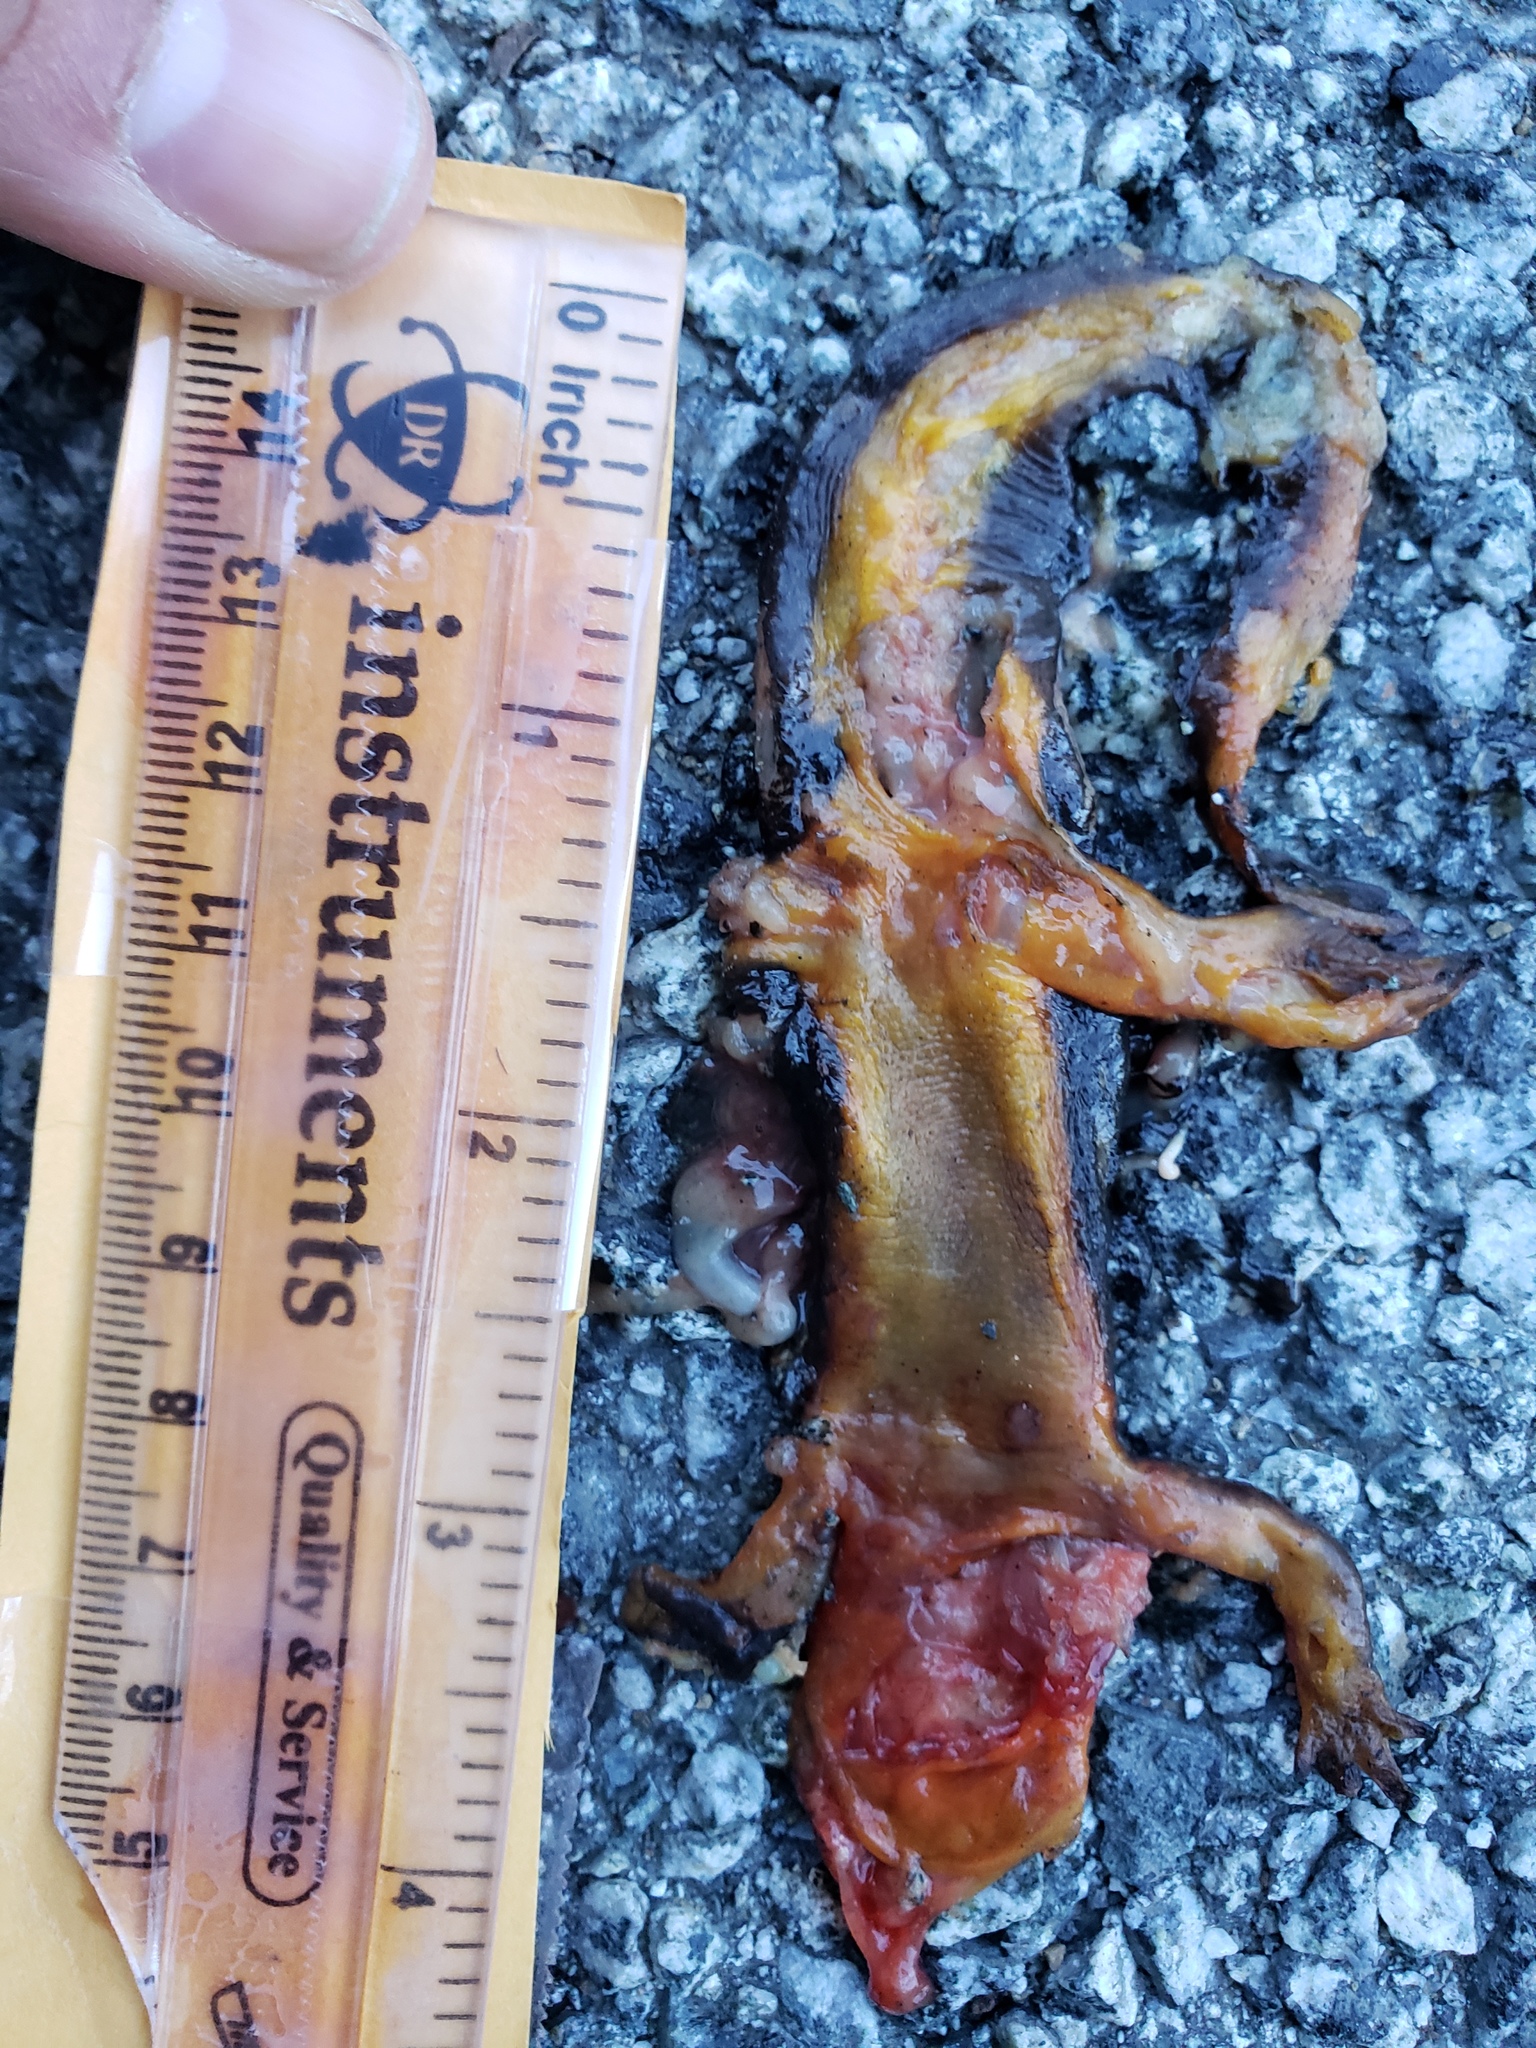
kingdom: Animalia
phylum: Chordata
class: Amphibia
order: Caudata
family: Salamandridae
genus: Taricha
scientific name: Taricha
